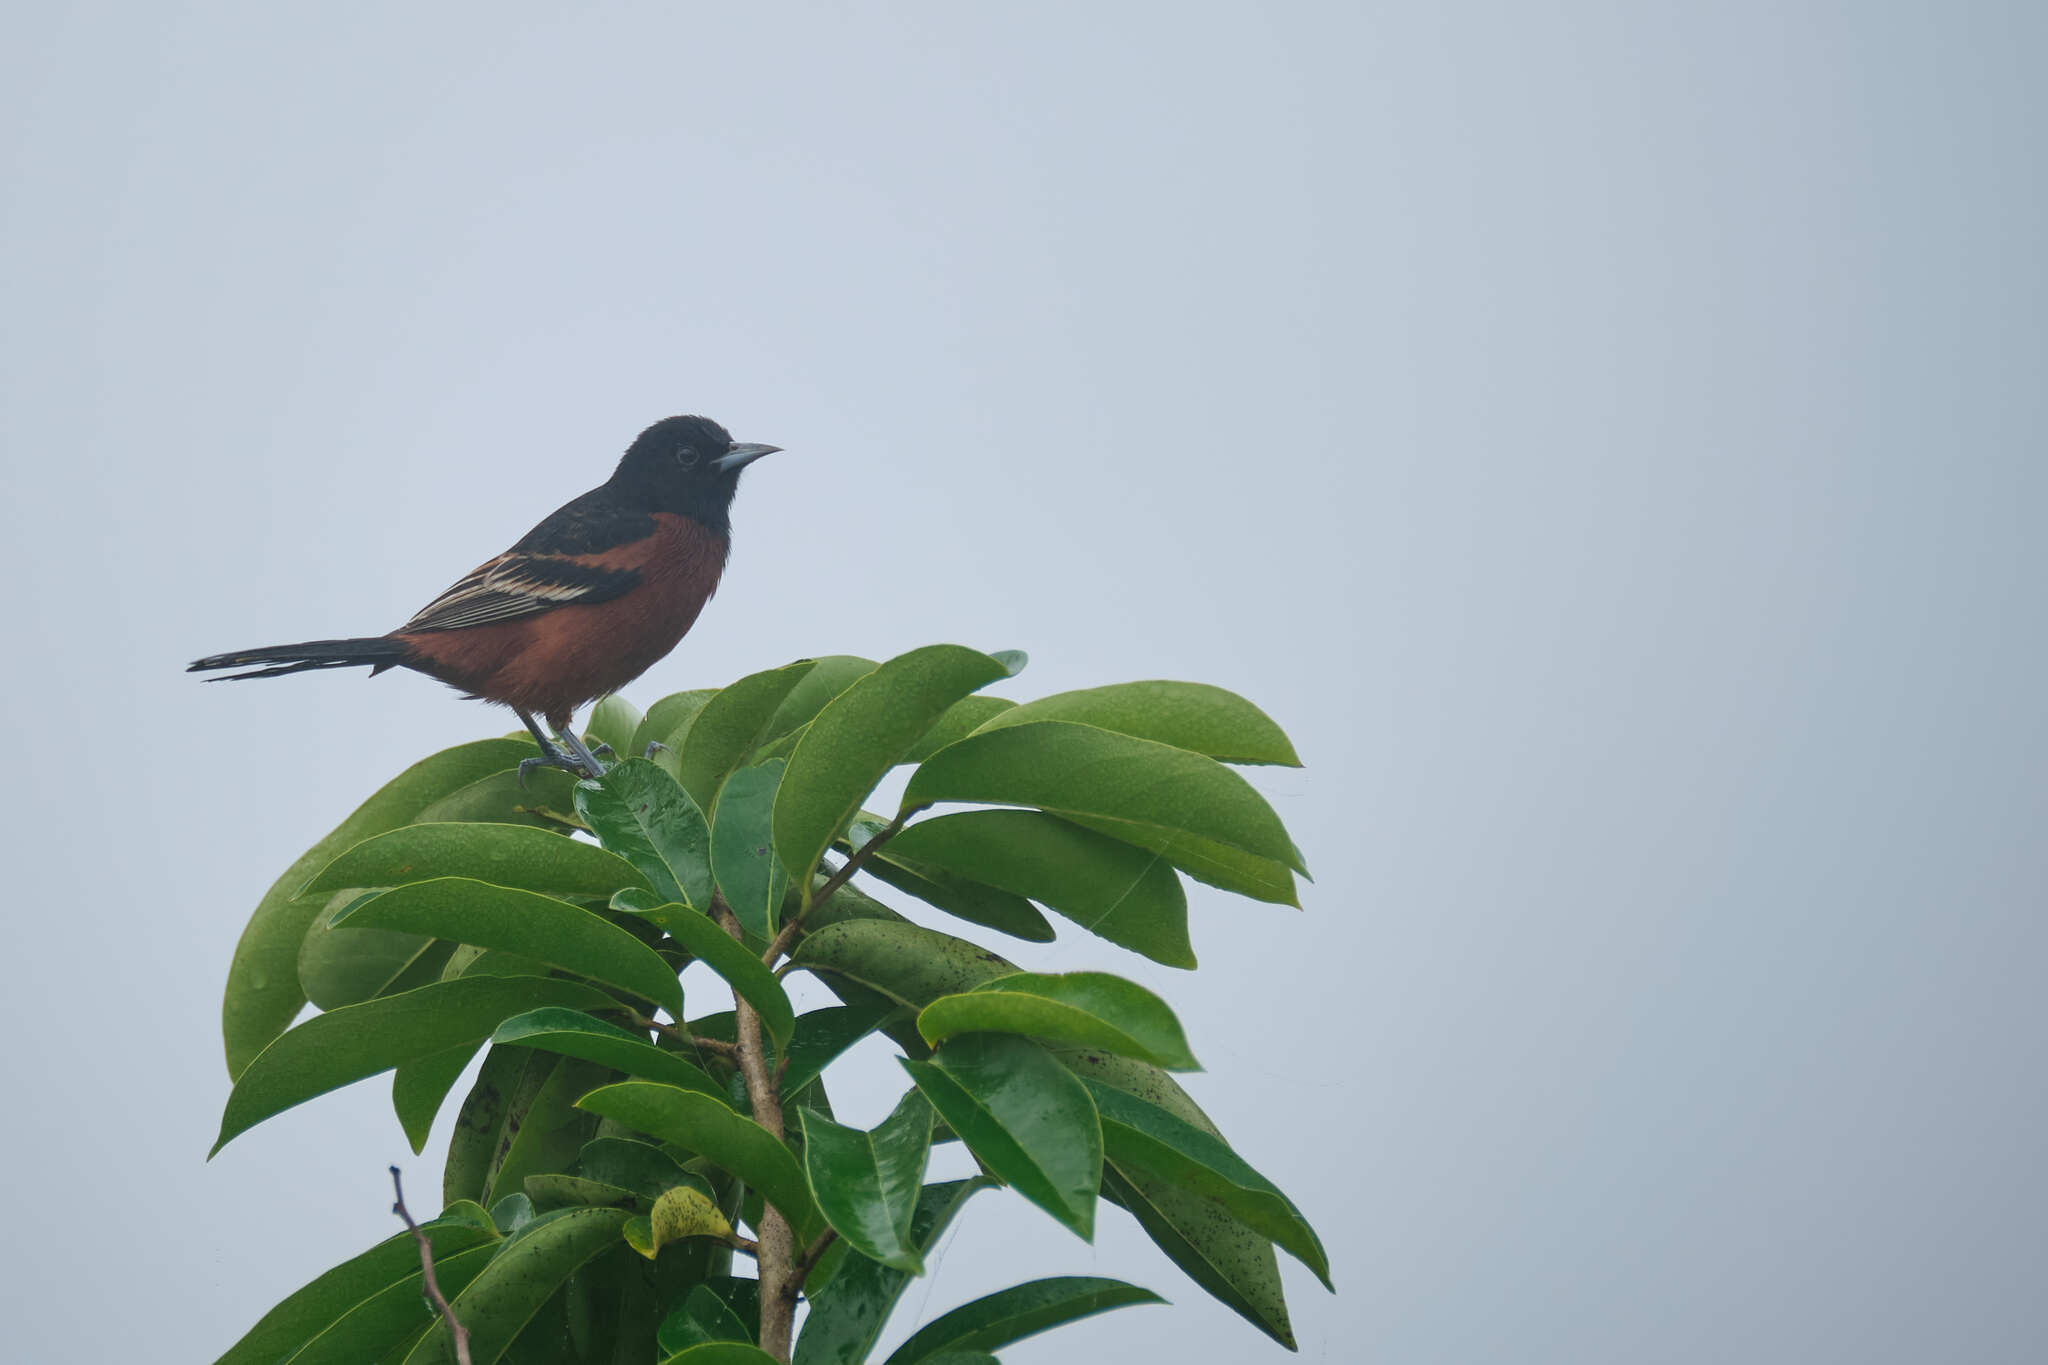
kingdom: Animalia
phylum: Chordata
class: Aves
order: Passeriformes
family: Icteridae
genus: Icterus
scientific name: Icterus spurius
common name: Orchard oriole
